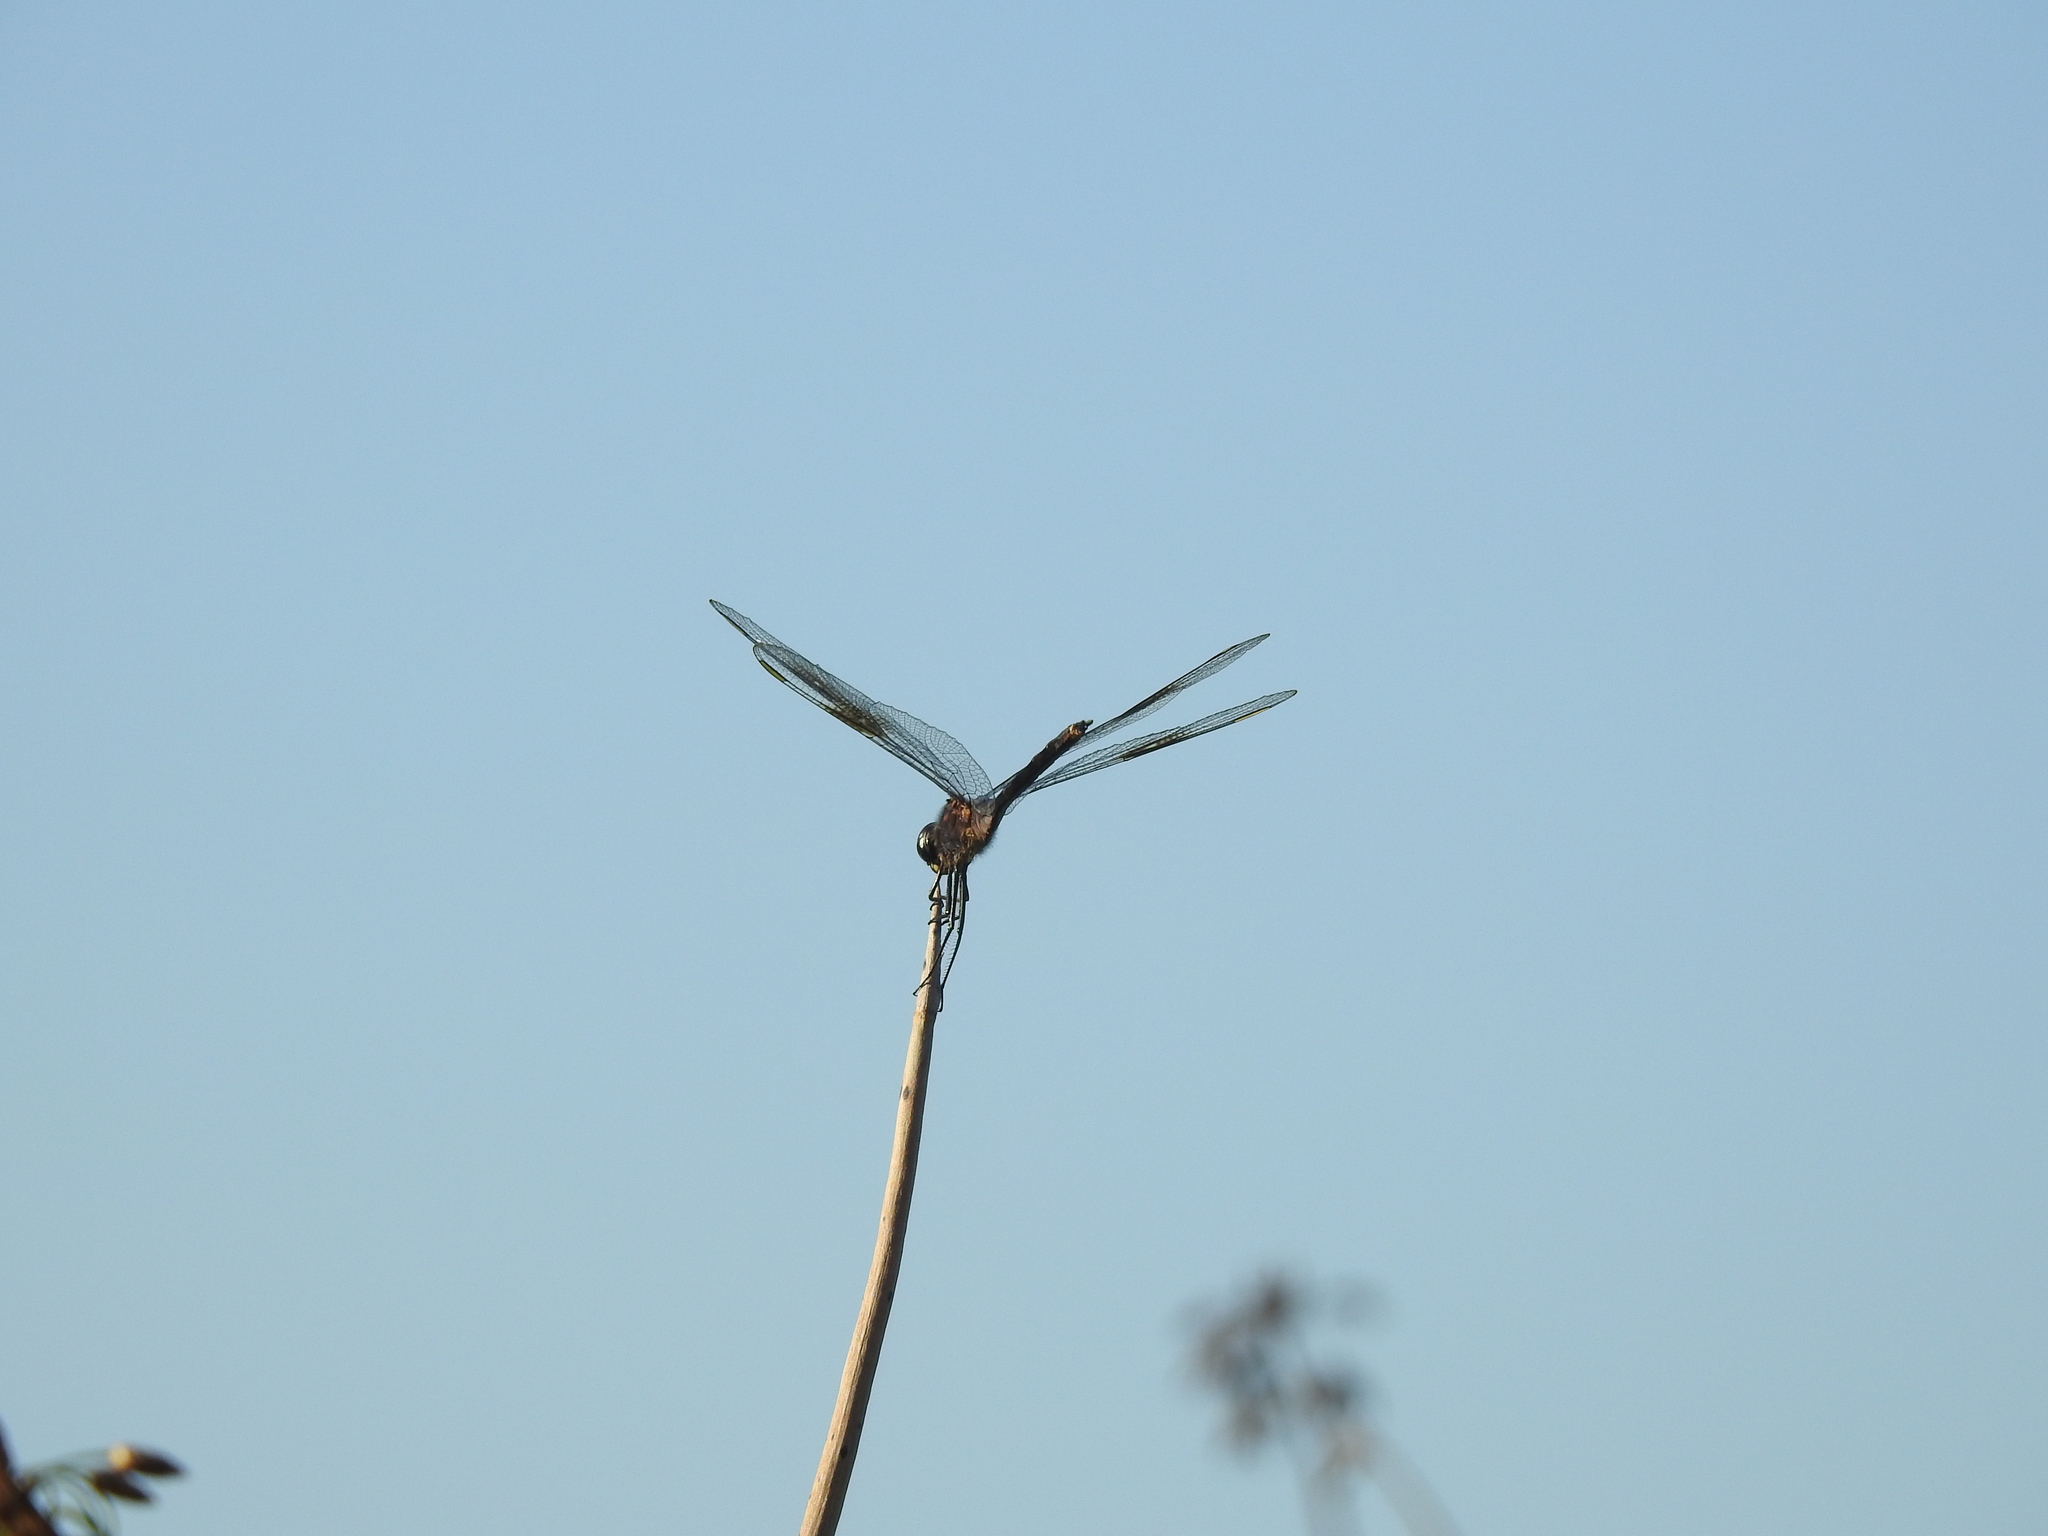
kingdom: Animalia
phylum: Arthropoda
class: Insecta
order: Odonata
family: Libellulidae
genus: Brachymesia
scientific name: Brachymesia gravida
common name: Four-spotted pennant
